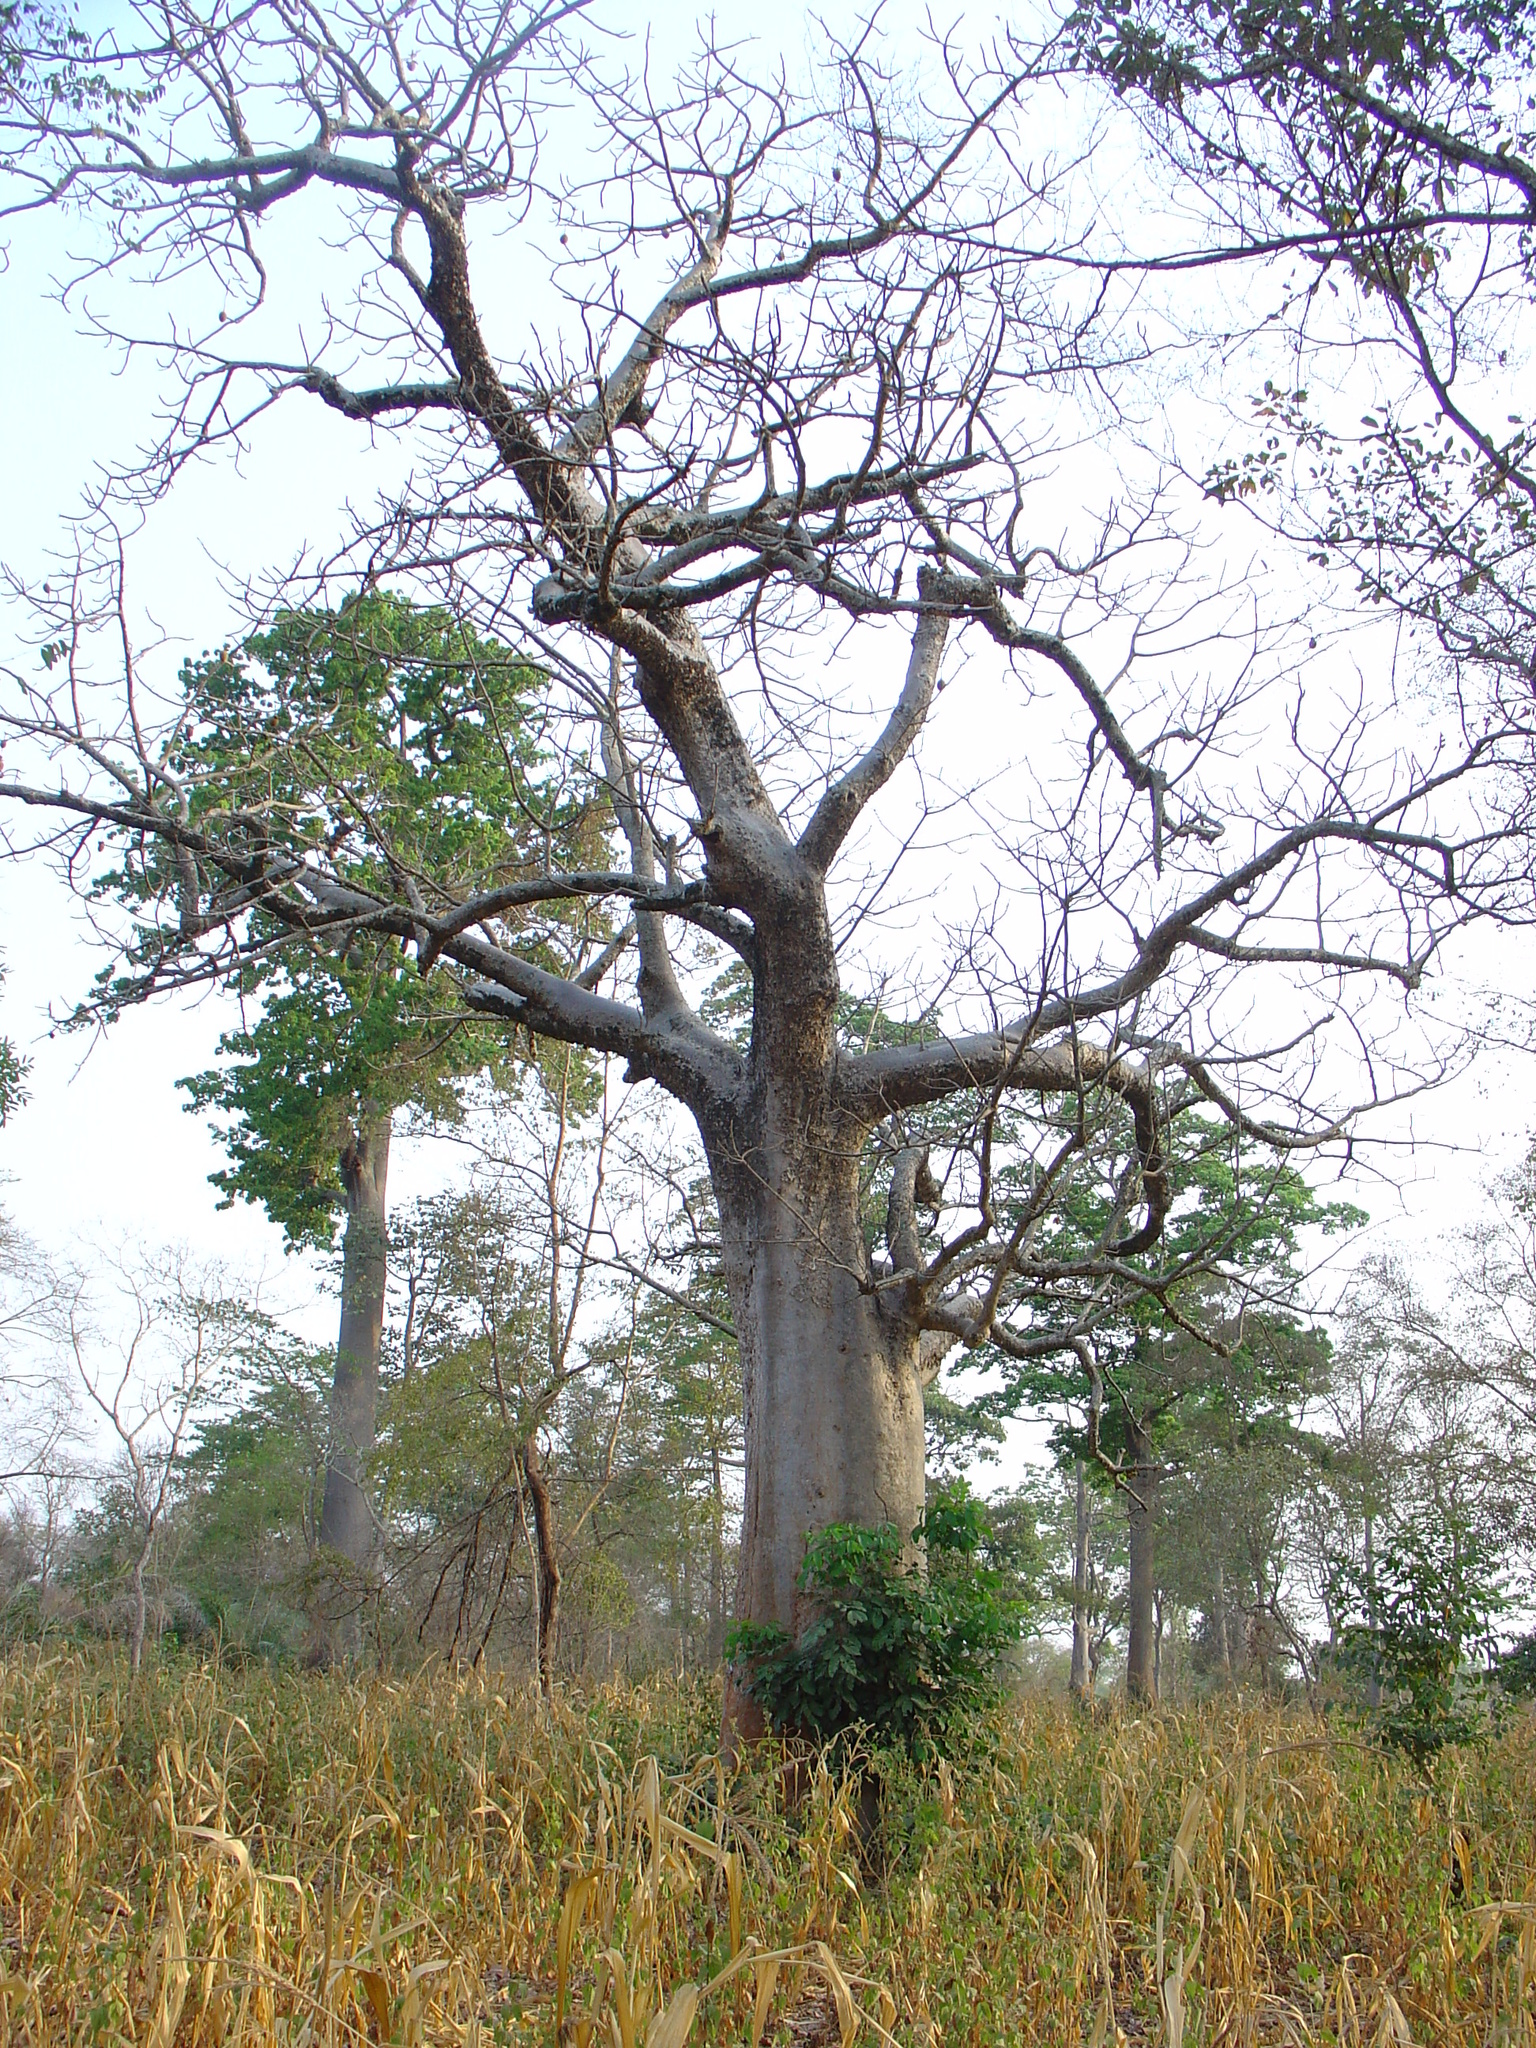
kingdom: Plantae
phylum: Tracheophyta
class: Magnoliopsida
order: Malvales
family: Malvaceae
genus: Adansonia
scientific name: Adansonia digitata
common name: Dead-rat-tree
